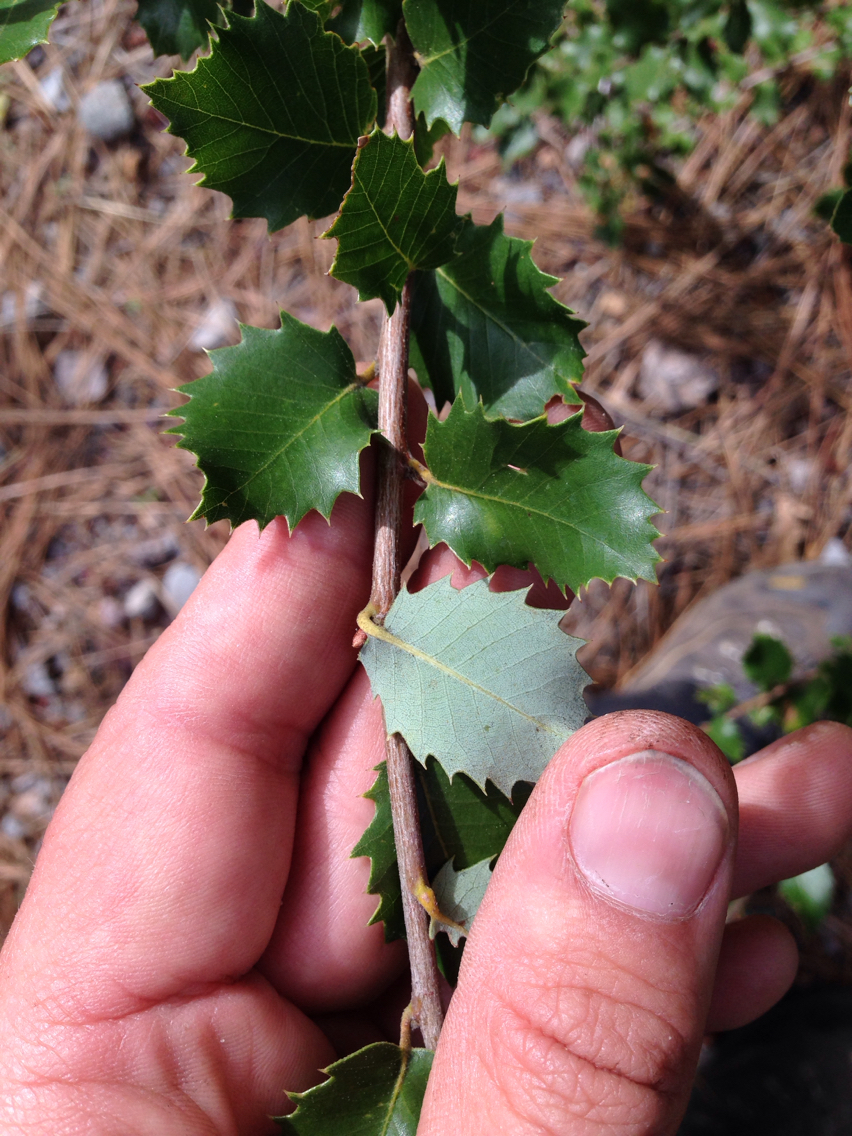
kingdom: Plantae
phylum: Tracheophyta
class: Magnoliopsida
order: Fagales
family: Fagaceae
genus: Quercus
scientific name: Quercus chrysolepis
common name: Canyon live oak
